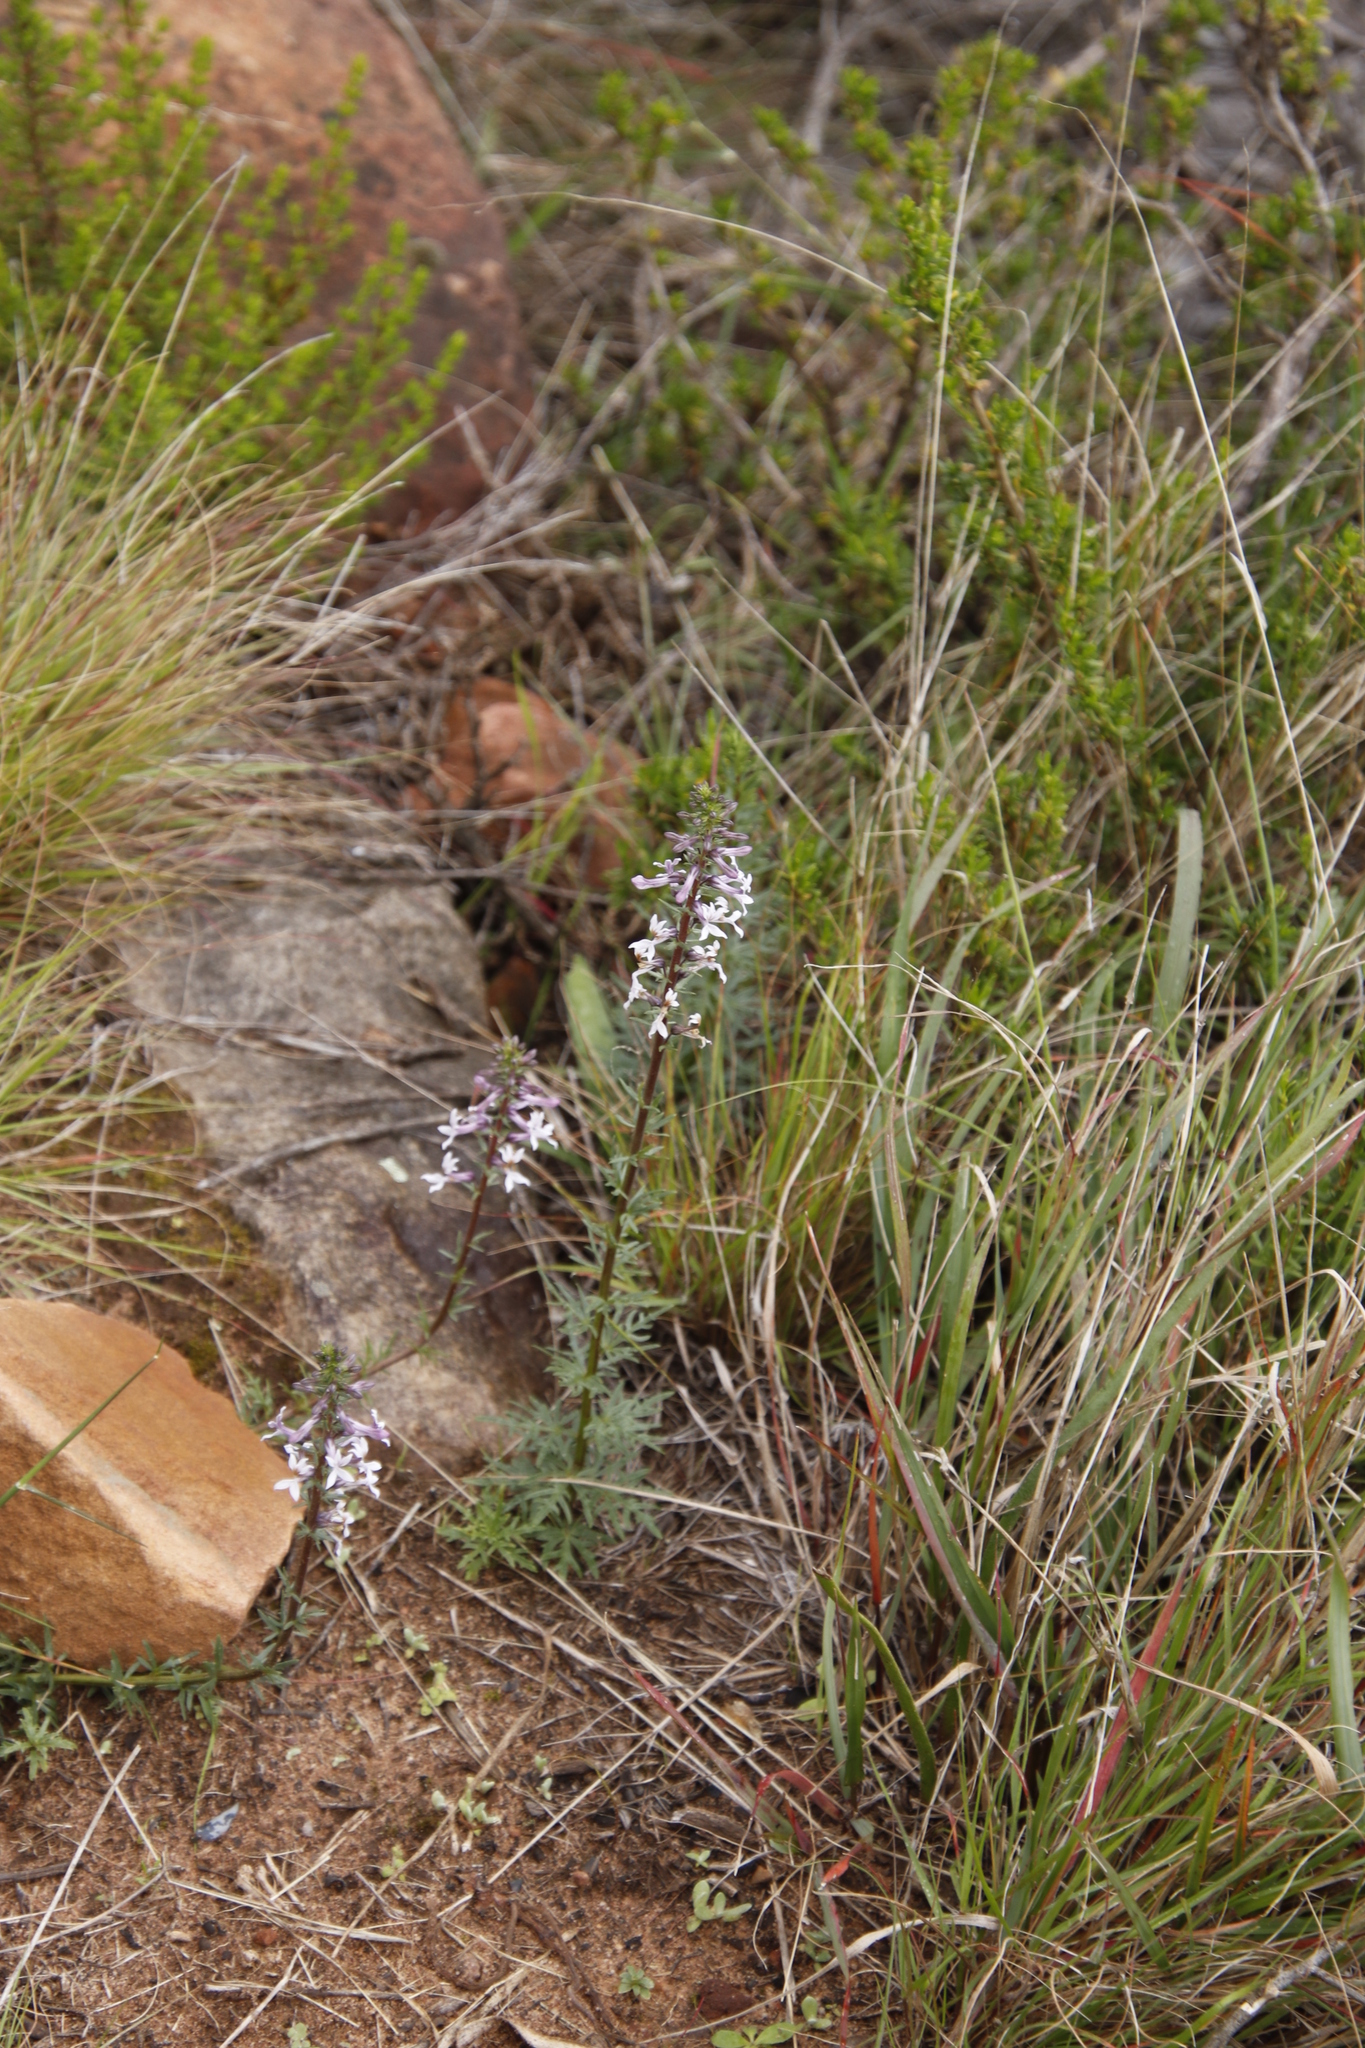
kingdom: Plantae
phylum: Tracheophyta
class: Magnoliopsida
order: Asterales
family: Campanulaceae
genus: Cyphia
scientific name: Cyphia bulbosa
